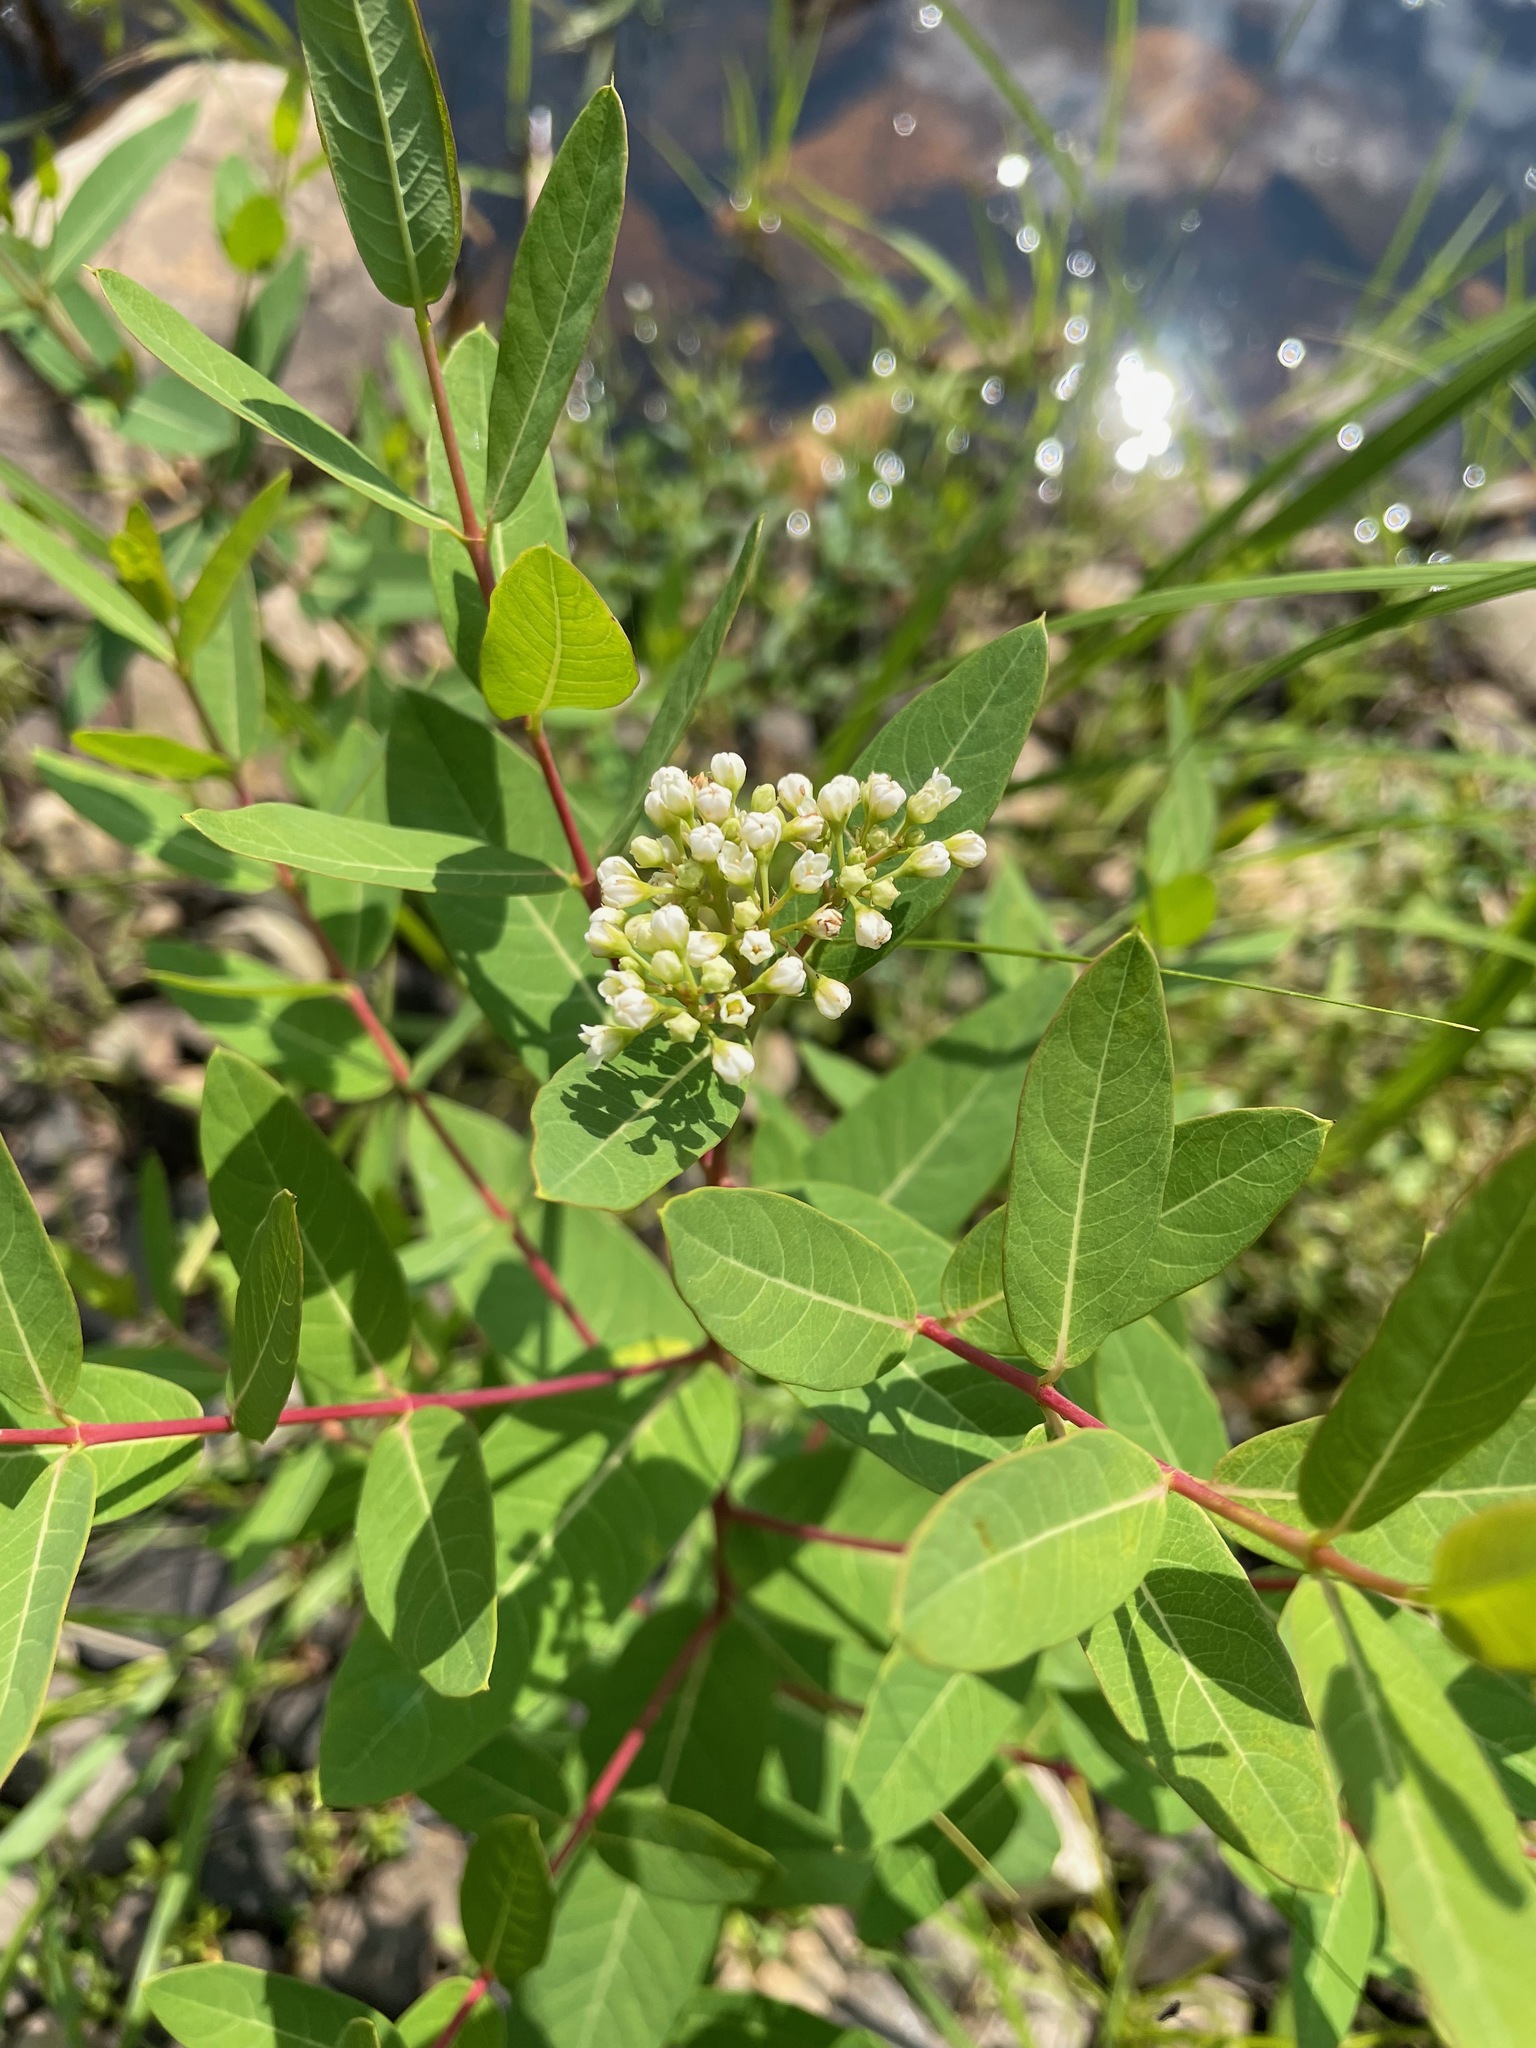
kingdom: Plantae
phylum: Tracheophyta
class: Magnoliopsida
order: Gentianales
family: Apocynaceae
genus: Apocynum
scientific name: Apocynum cannabinum
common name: Hemp dogbane
